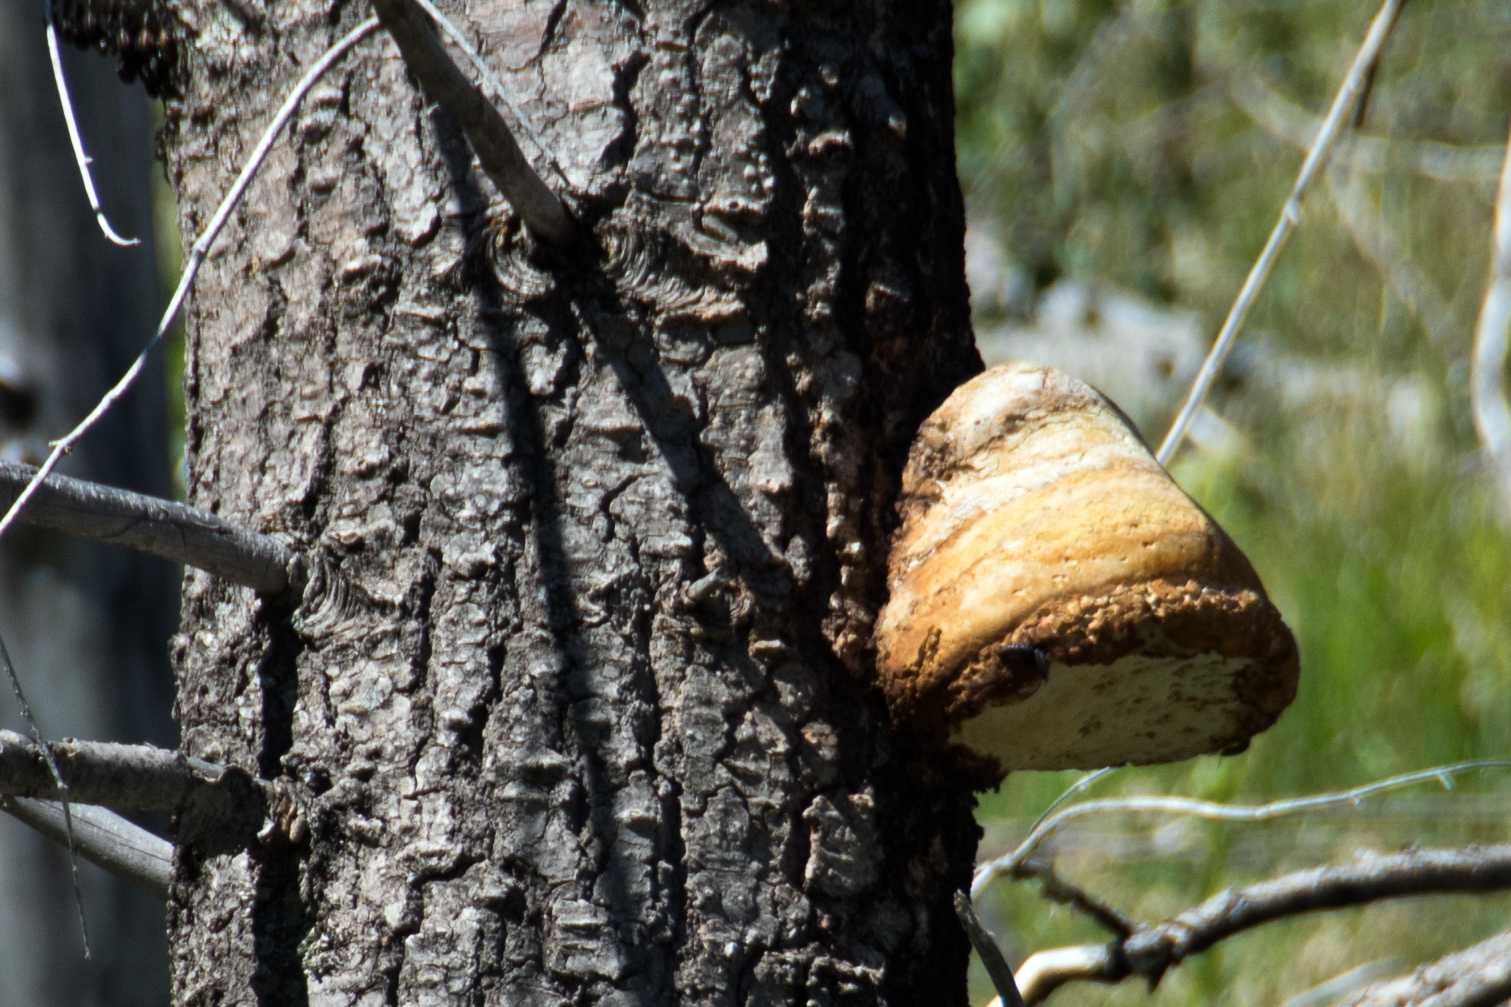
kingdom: Fungi
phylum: Basidiomycota
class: Agaricomycetes
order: Polyporales
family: Fomitopsidaceae
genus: Fomitopsis
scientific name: Fomitopsis schrenkii
